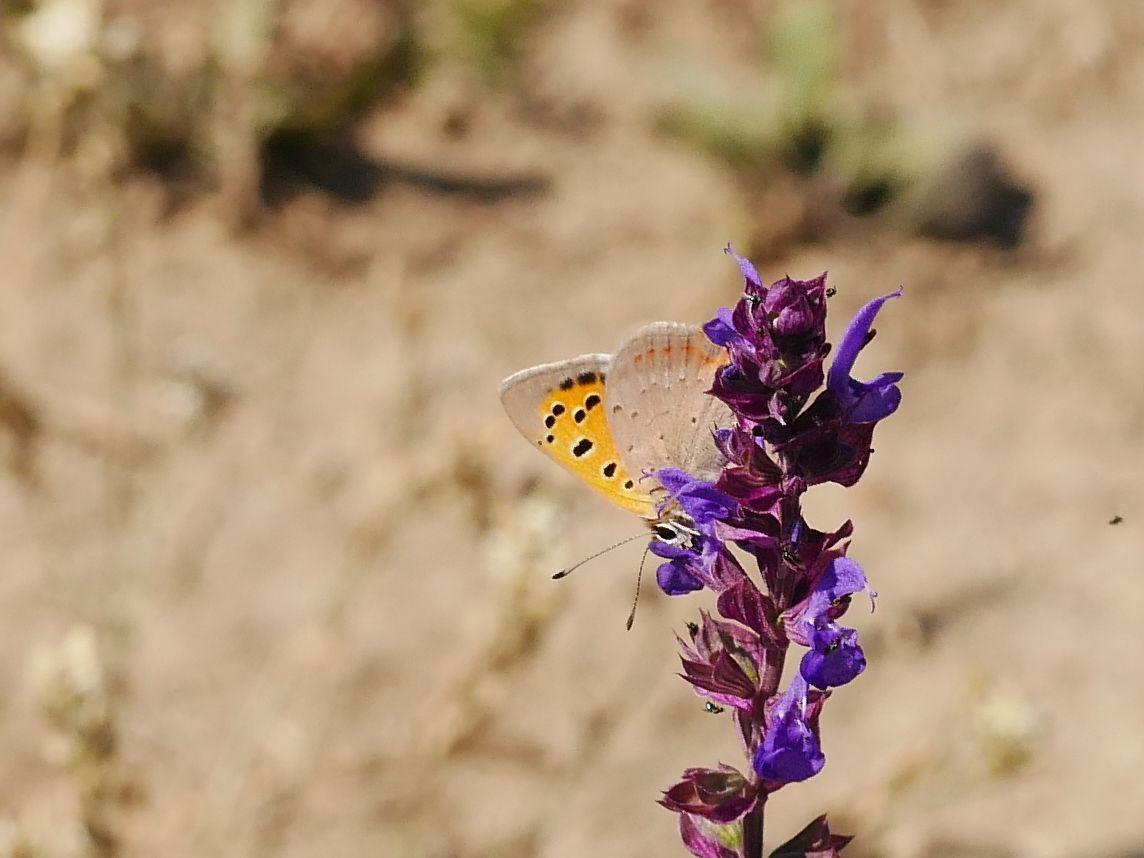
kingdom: Animalia
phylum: Arthropoda
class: Insecta
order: Lepidoptera
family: Lycaenidae
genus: Lycaena
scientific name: Lycaena phlaeas
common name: Small copper
